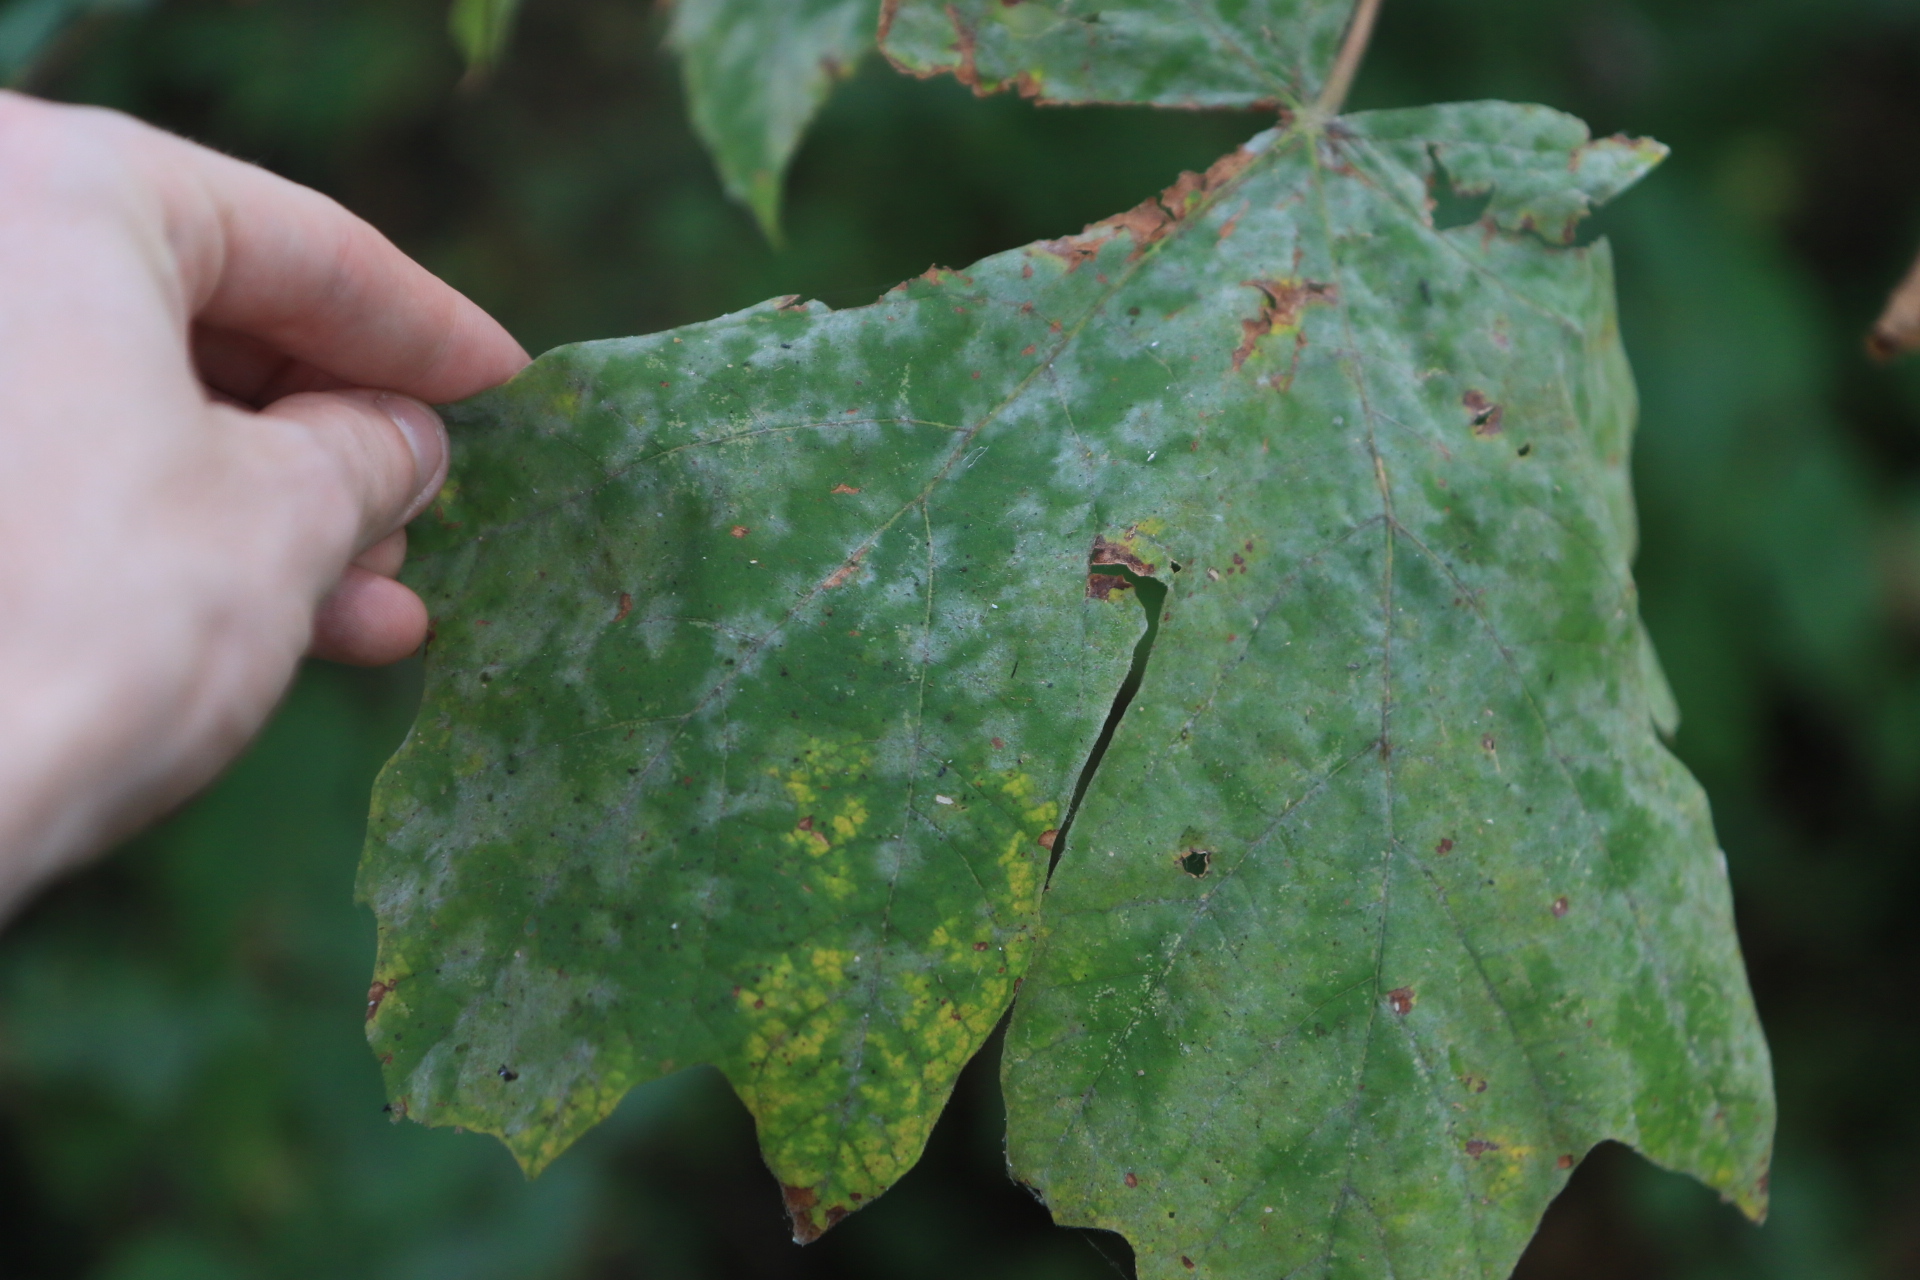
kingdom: Fungi
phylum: Ascomycota
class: Leotiomycetes
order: Helotiales
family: Erysiphaceae
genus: Sawadaea
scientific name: Sawadaea bicornis
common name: Maple mildew
